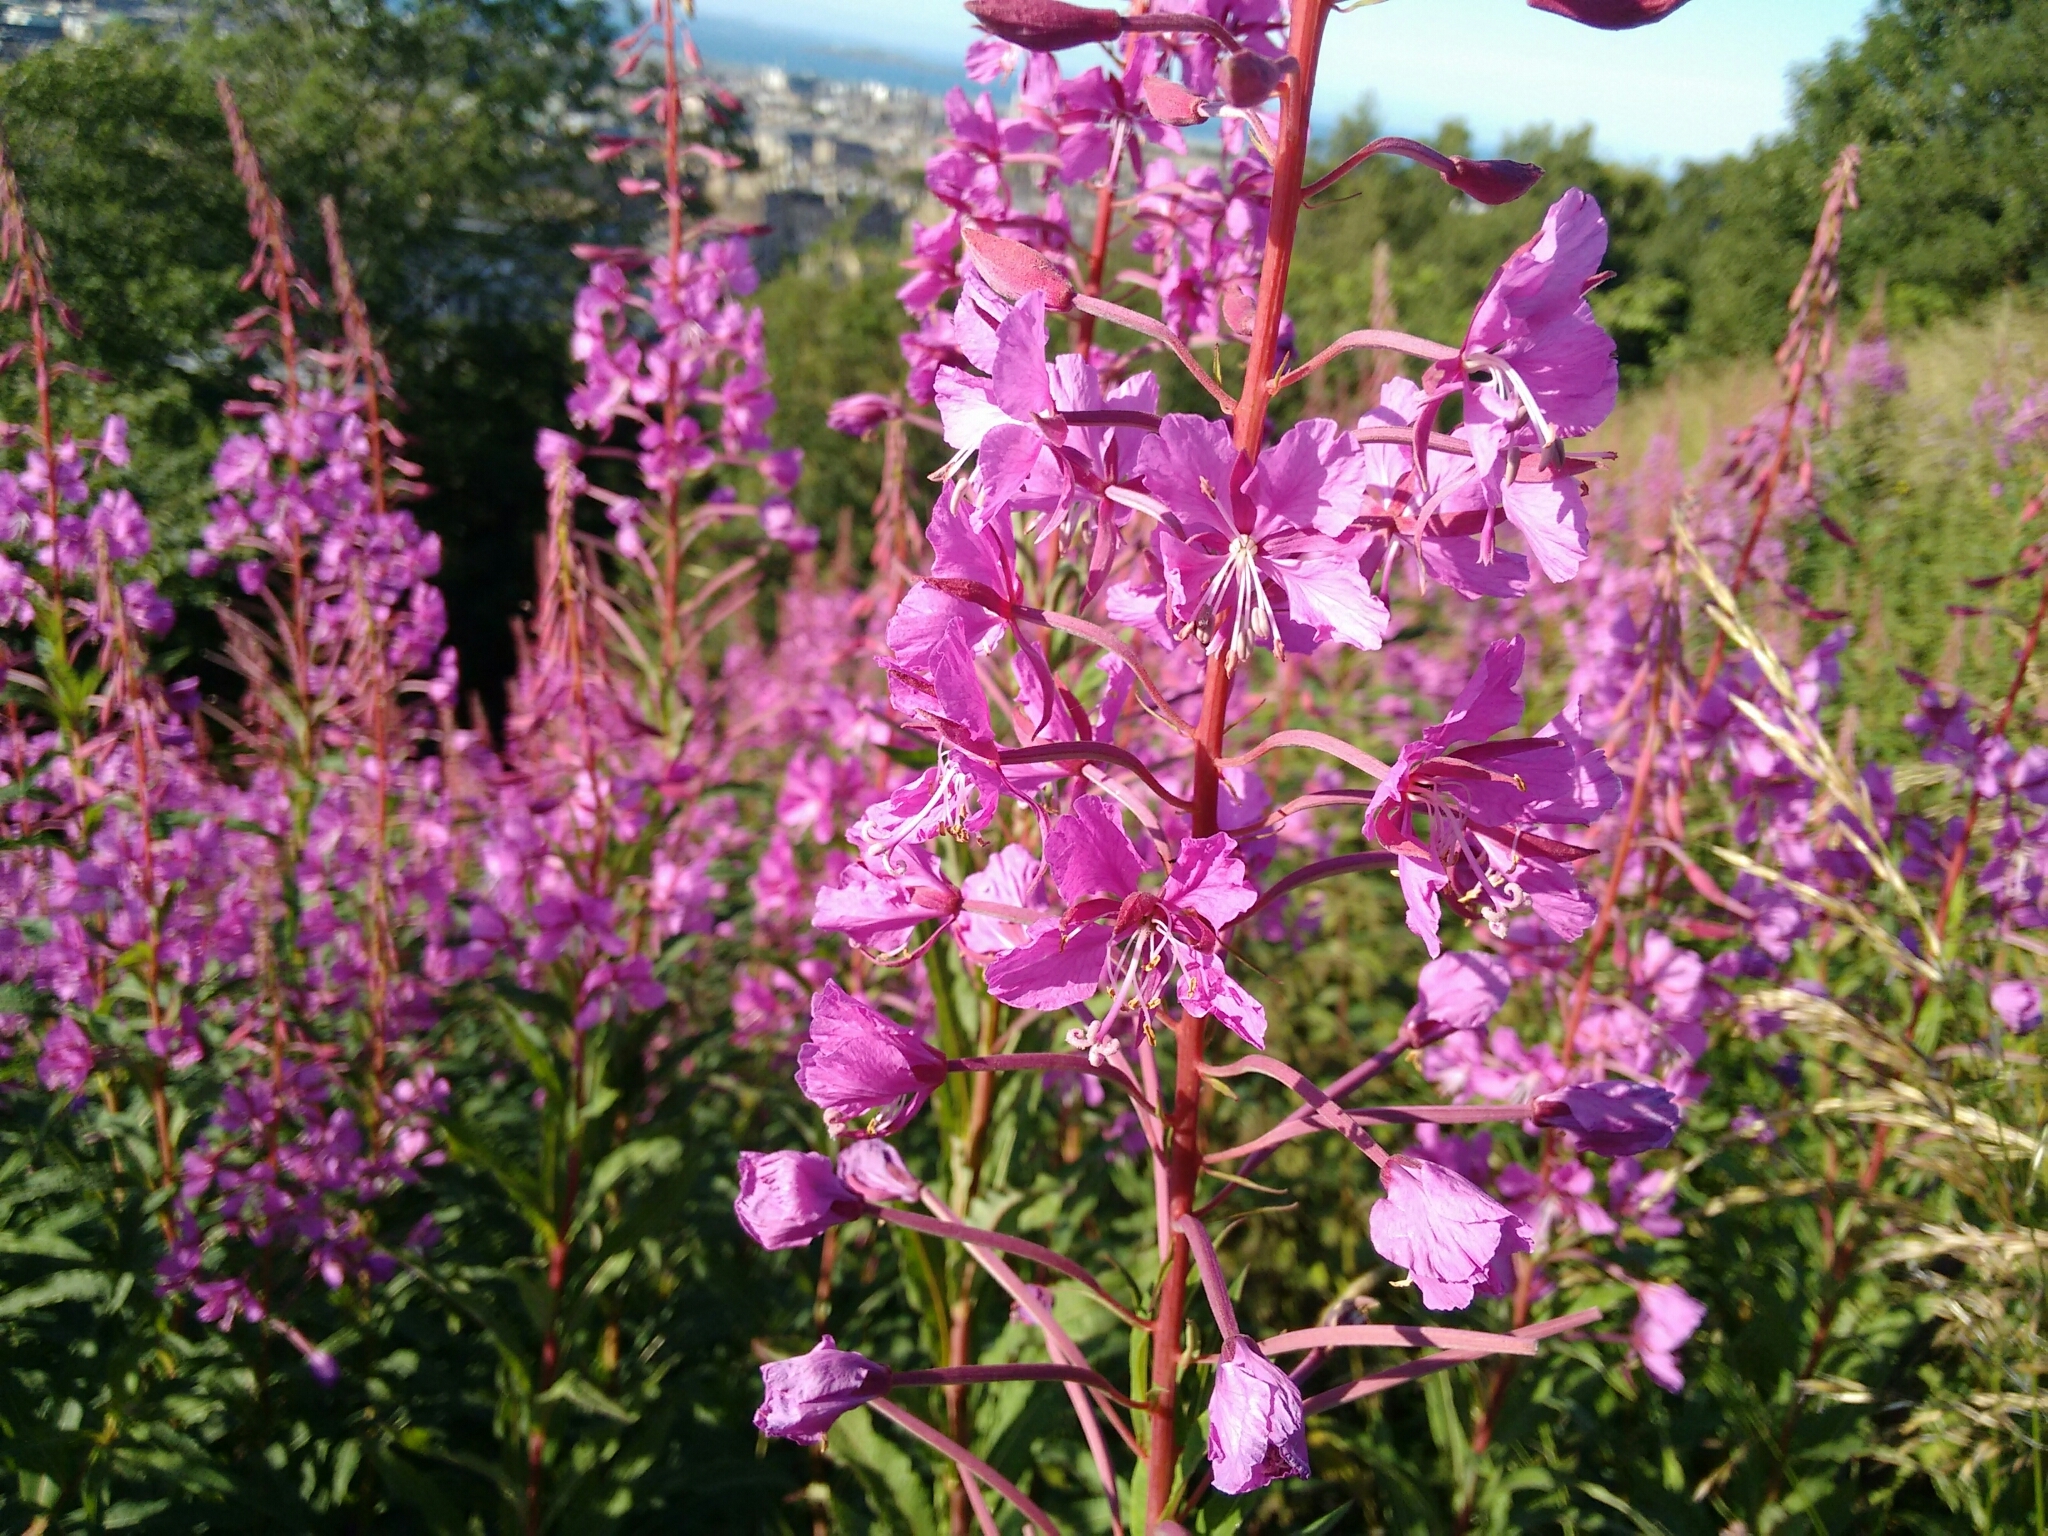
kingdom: Plantae
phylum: Tracheophyta
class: Magnoliopsida
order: Myrtales
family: Onagraceae
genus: Chamaenerion
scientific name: Chamaenerion angustifolium
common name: Fireweed
